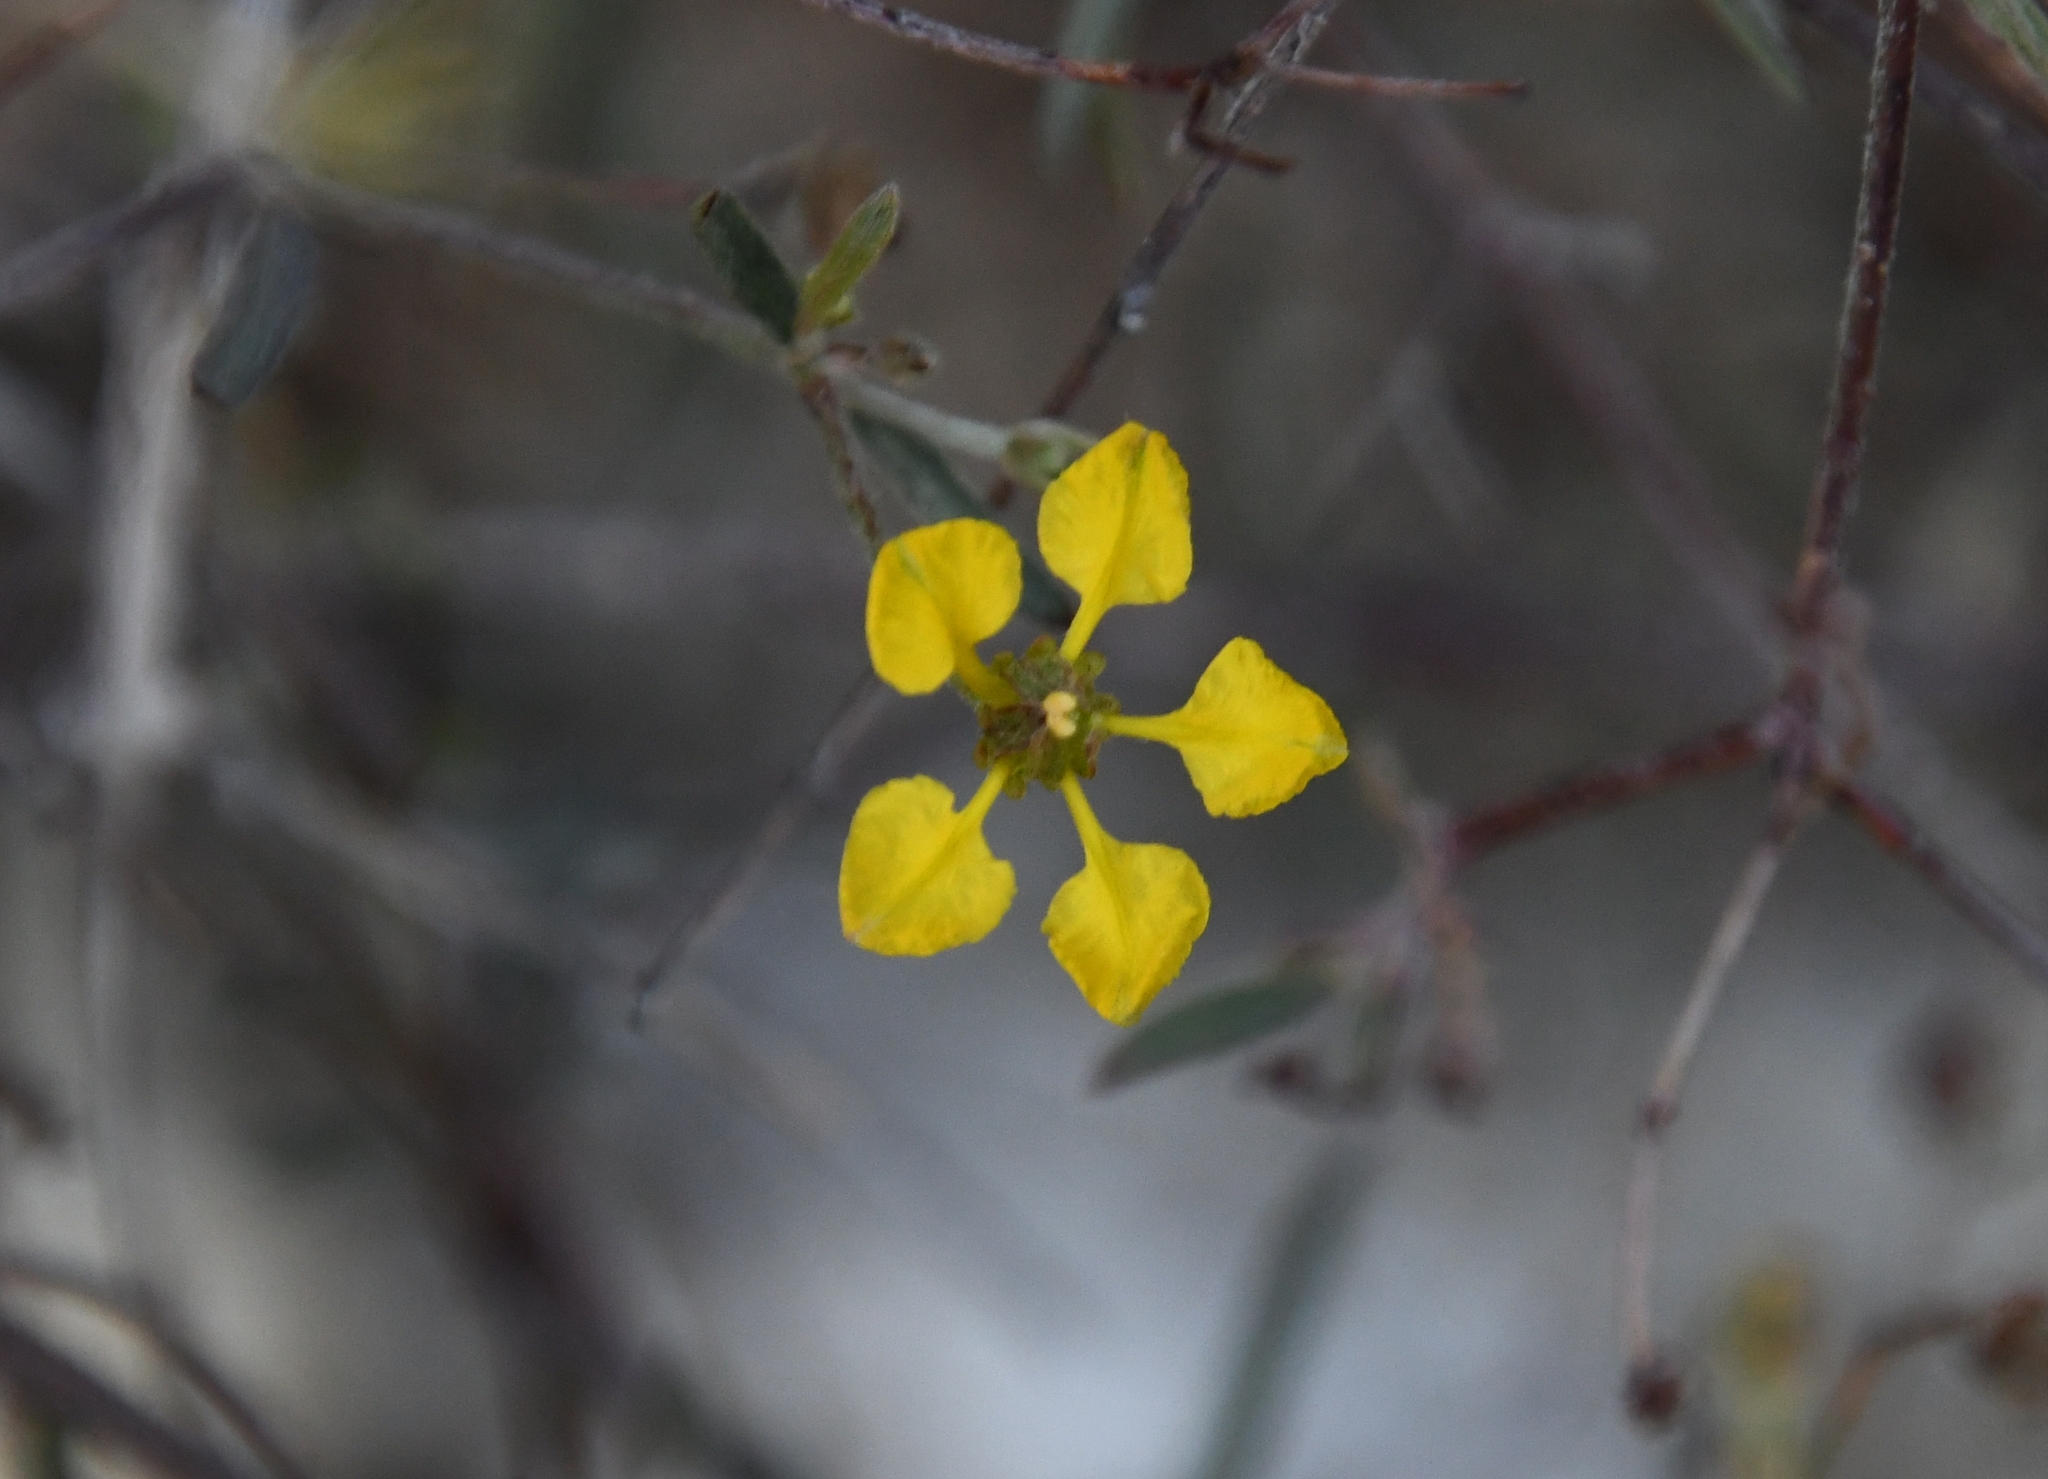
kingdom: Plantae
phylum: Tracheophyta
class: Magnoliopsida
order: Malpighiales
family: Malpighiaceae
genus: Cottsia
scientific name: Cottsia gracilis
